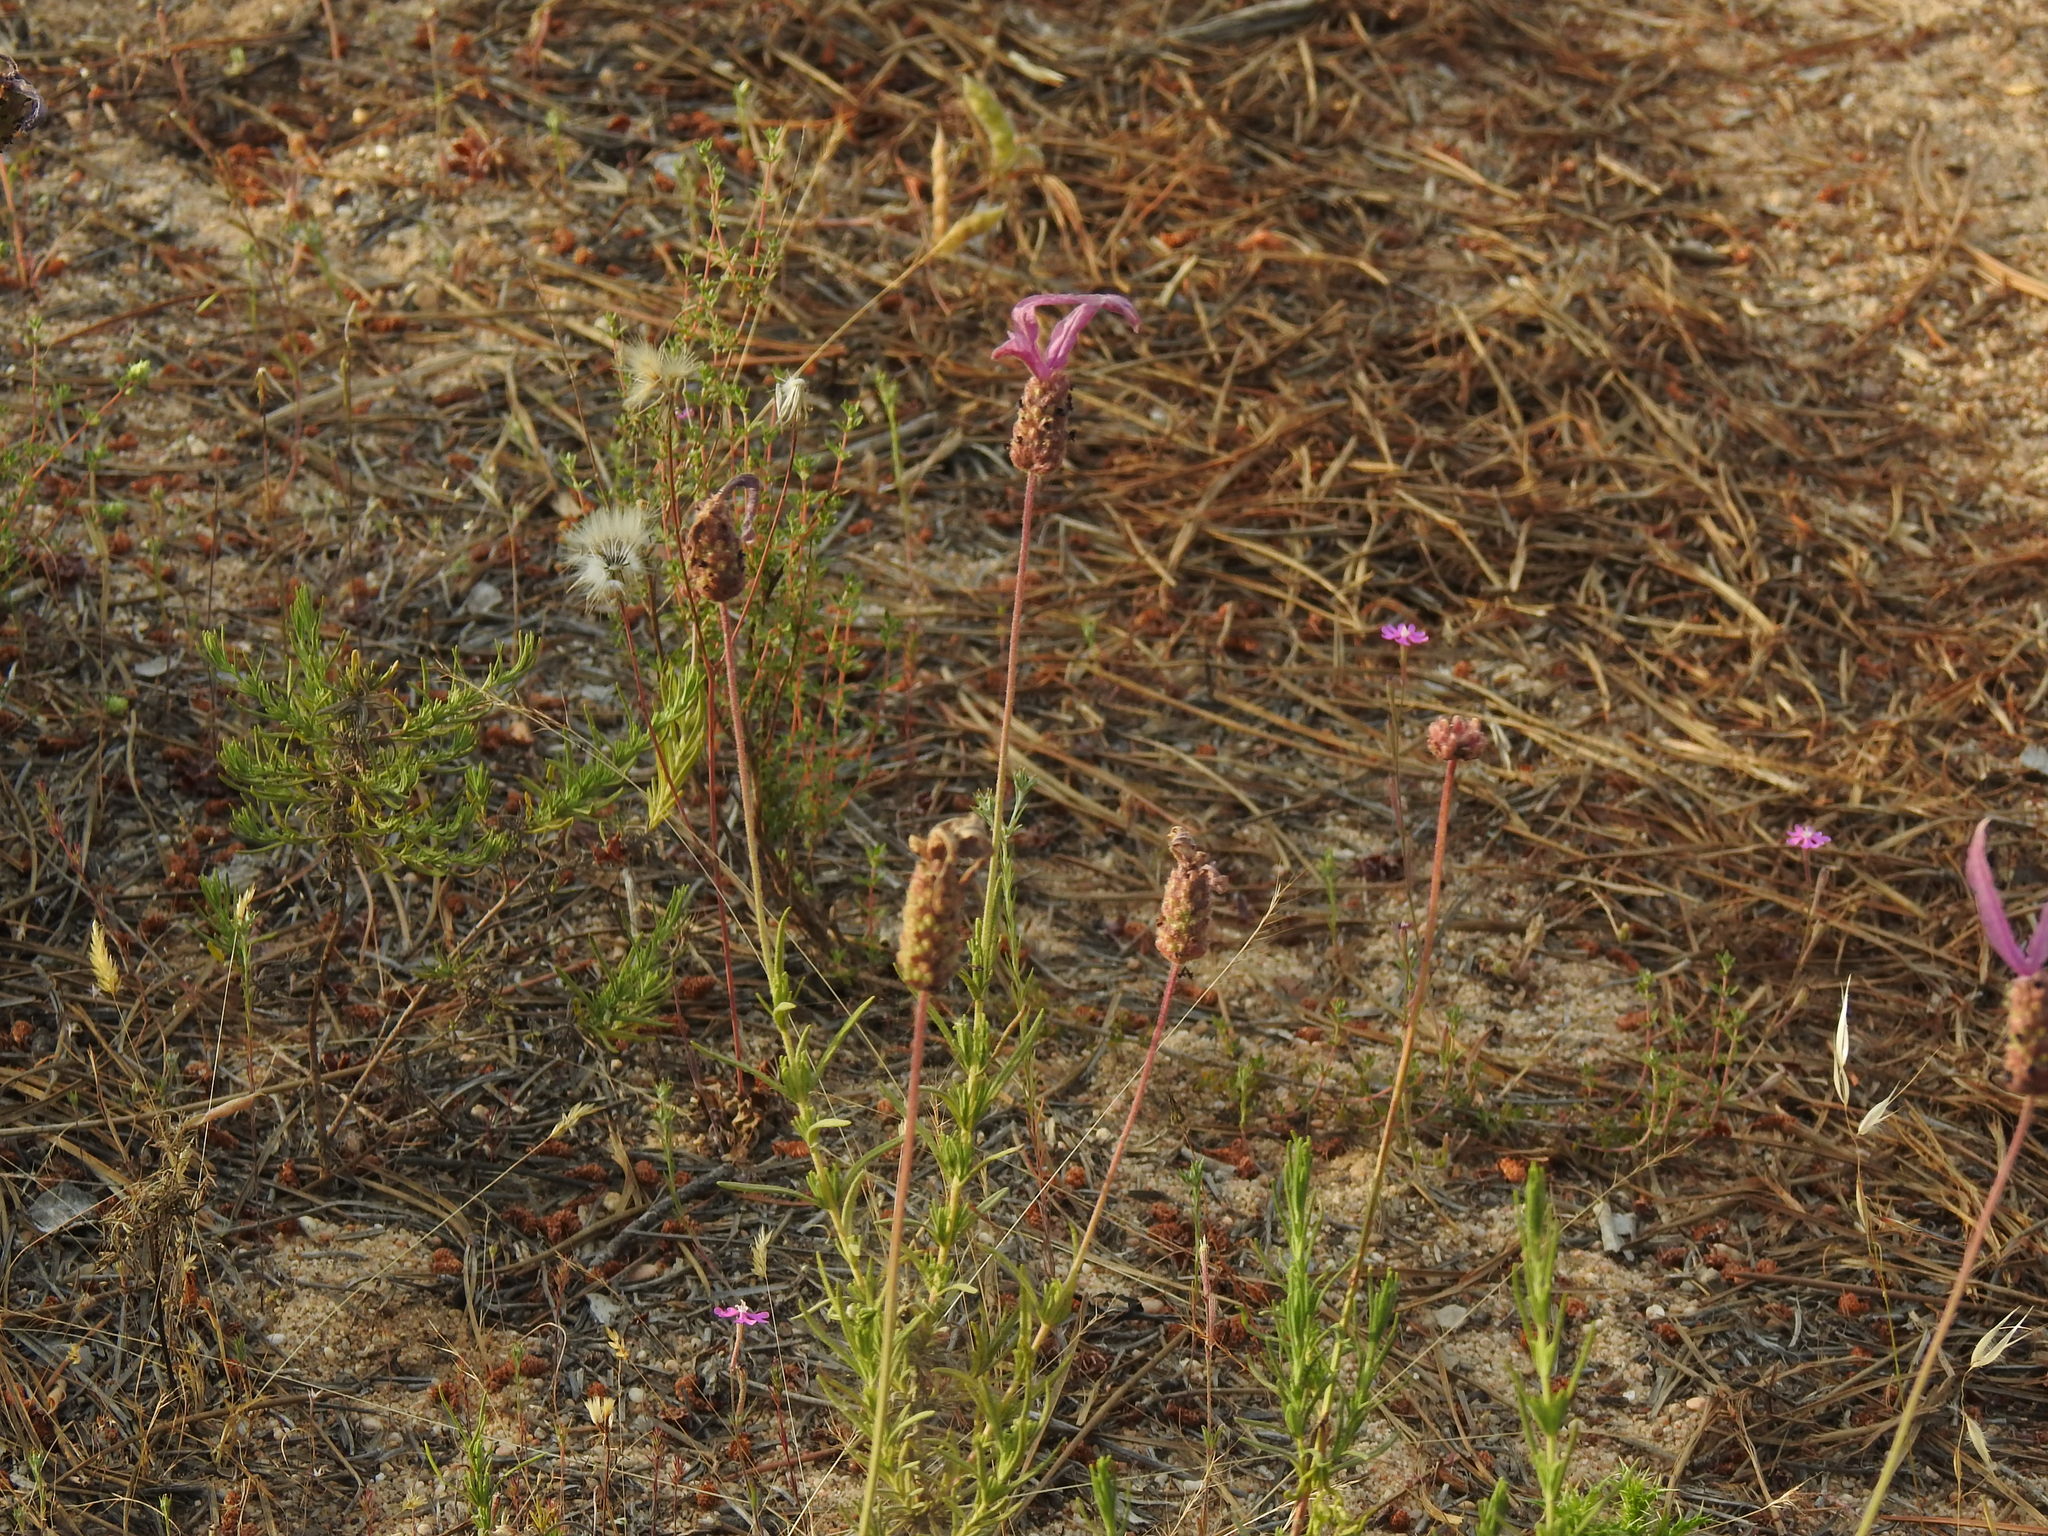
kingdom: Plantae
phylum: Tracheophyta
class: Magnoliopsida
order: Lamiales
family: Lamiaceae
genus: Lavandula
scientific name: Lavandula pedunculata
